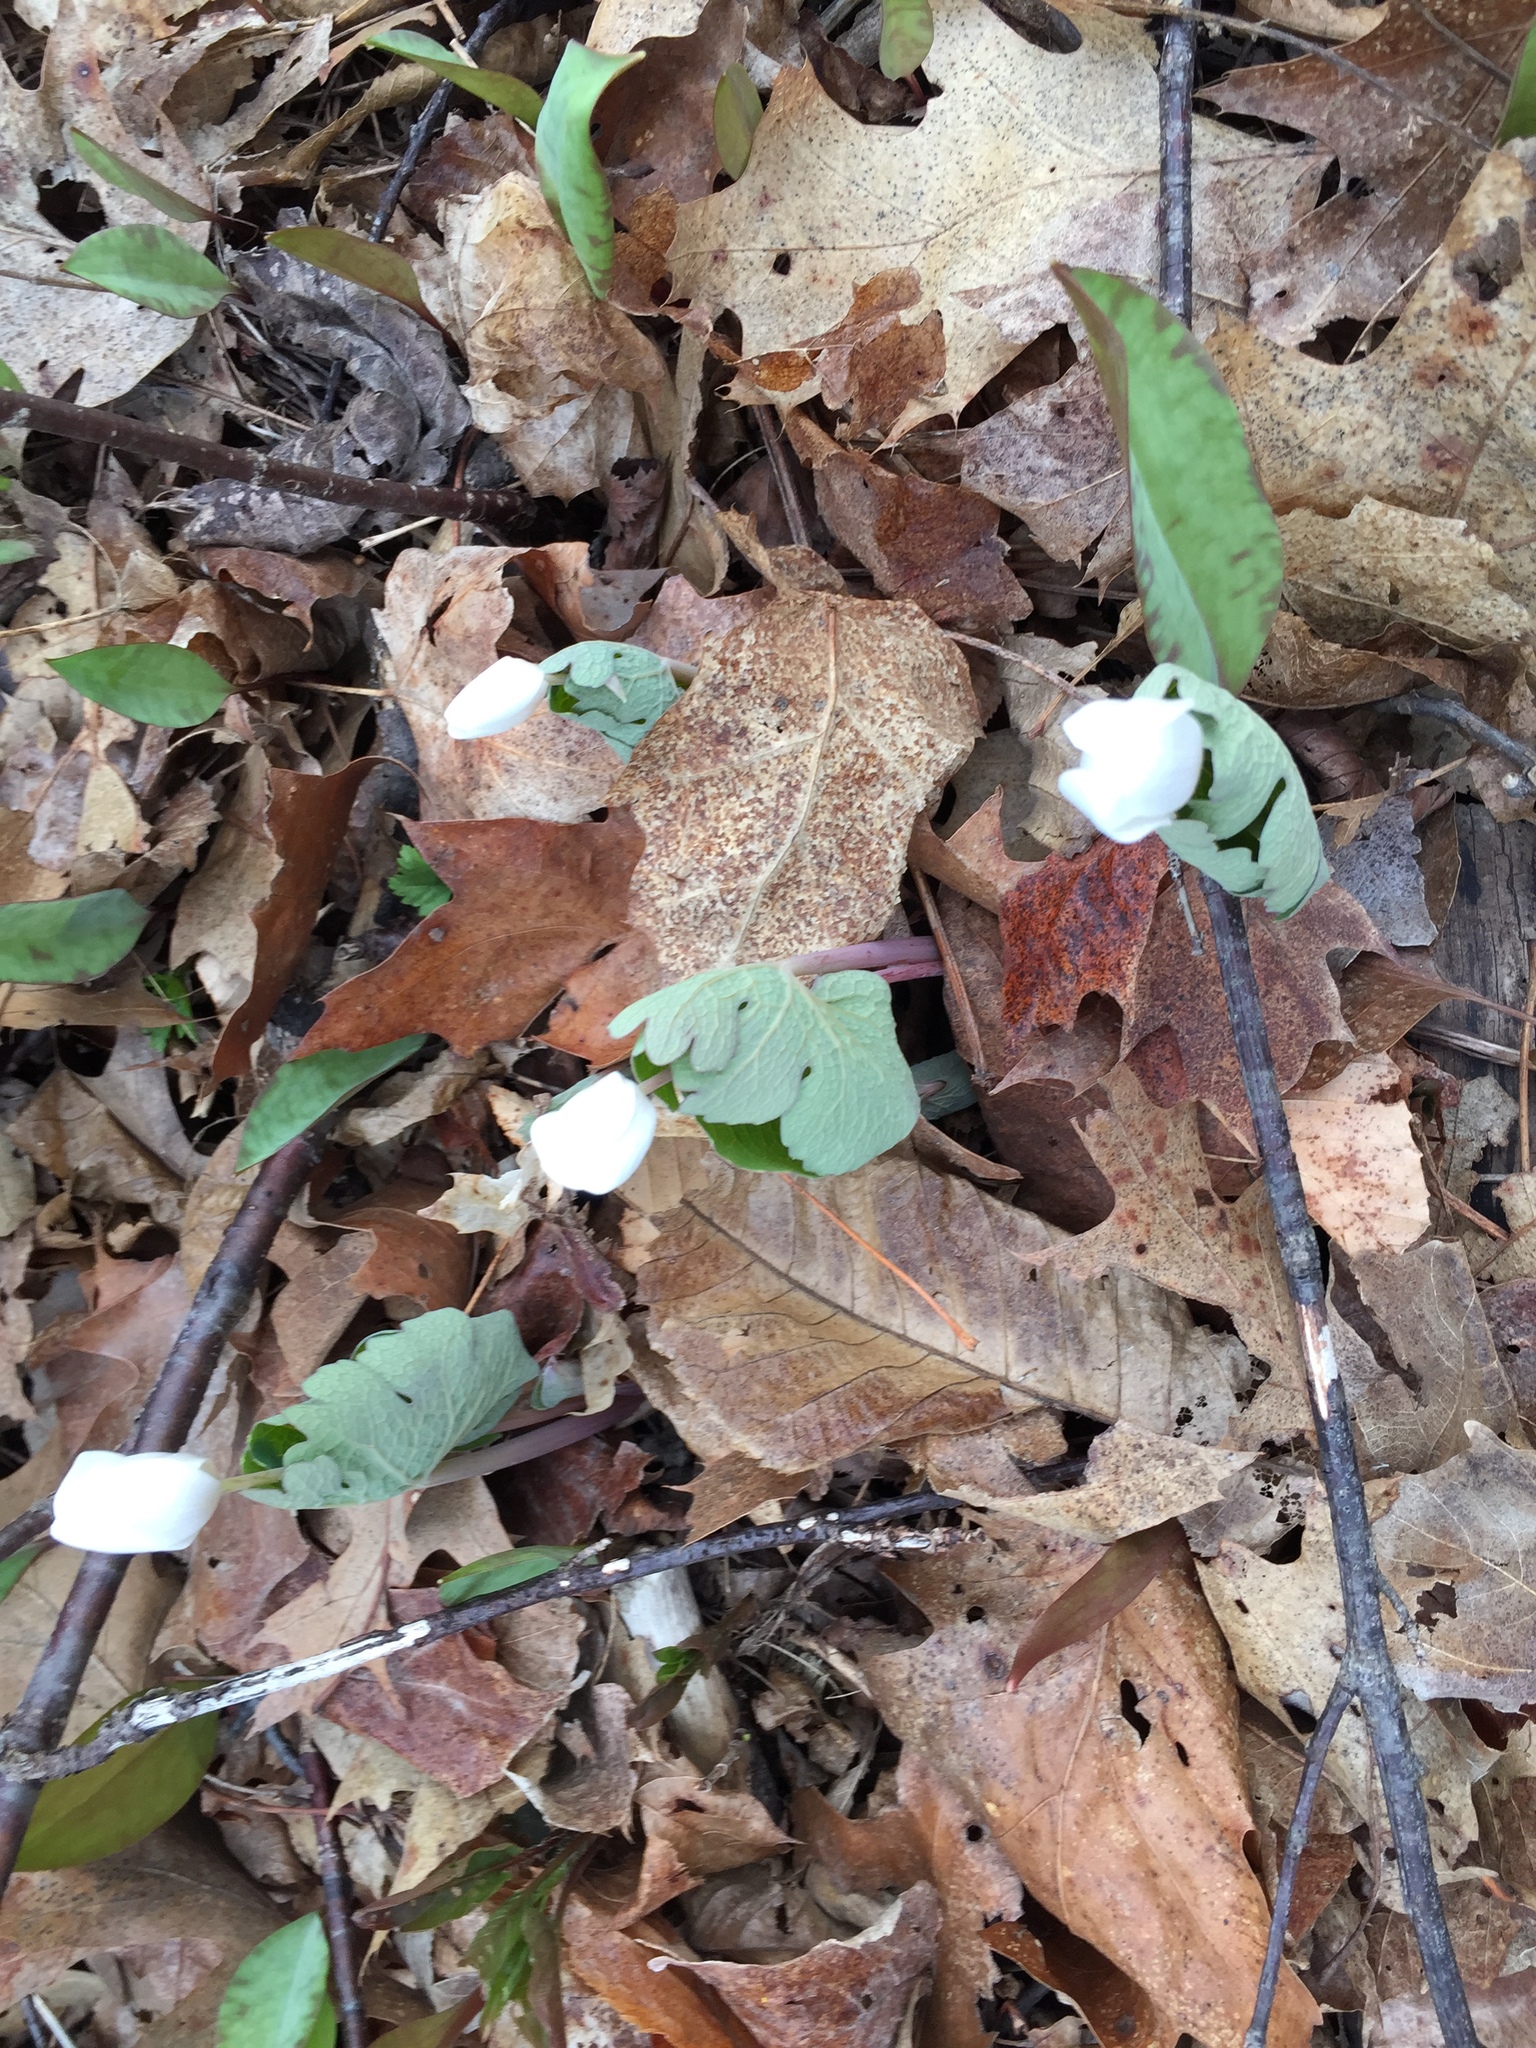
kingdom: Plantae
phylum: Tracheophyta
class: Magnoliopsida
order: Ranunculales
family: Papaveraceae
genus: Sanguinaria
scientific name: Sanguinaria canadensis
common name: Bloodroot
